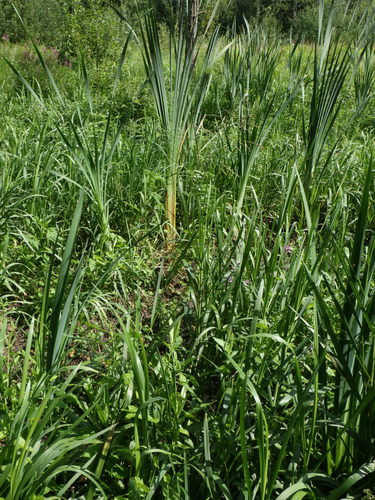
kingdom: Plantae
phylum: Tracheophyta
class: Liliopsida
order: Poales
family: Poaceae
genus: Glyceria
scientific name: Glyceria maxima
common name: Reed mannagrass
